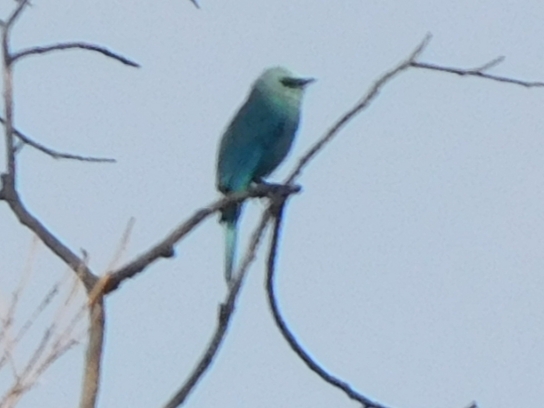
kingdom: Animalia
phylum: Chordata
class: Aves
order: Passeriformes
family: Muscicapidae
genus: Eumyias
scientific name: Eumyias thalassinus
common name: Verditer flycatcher
